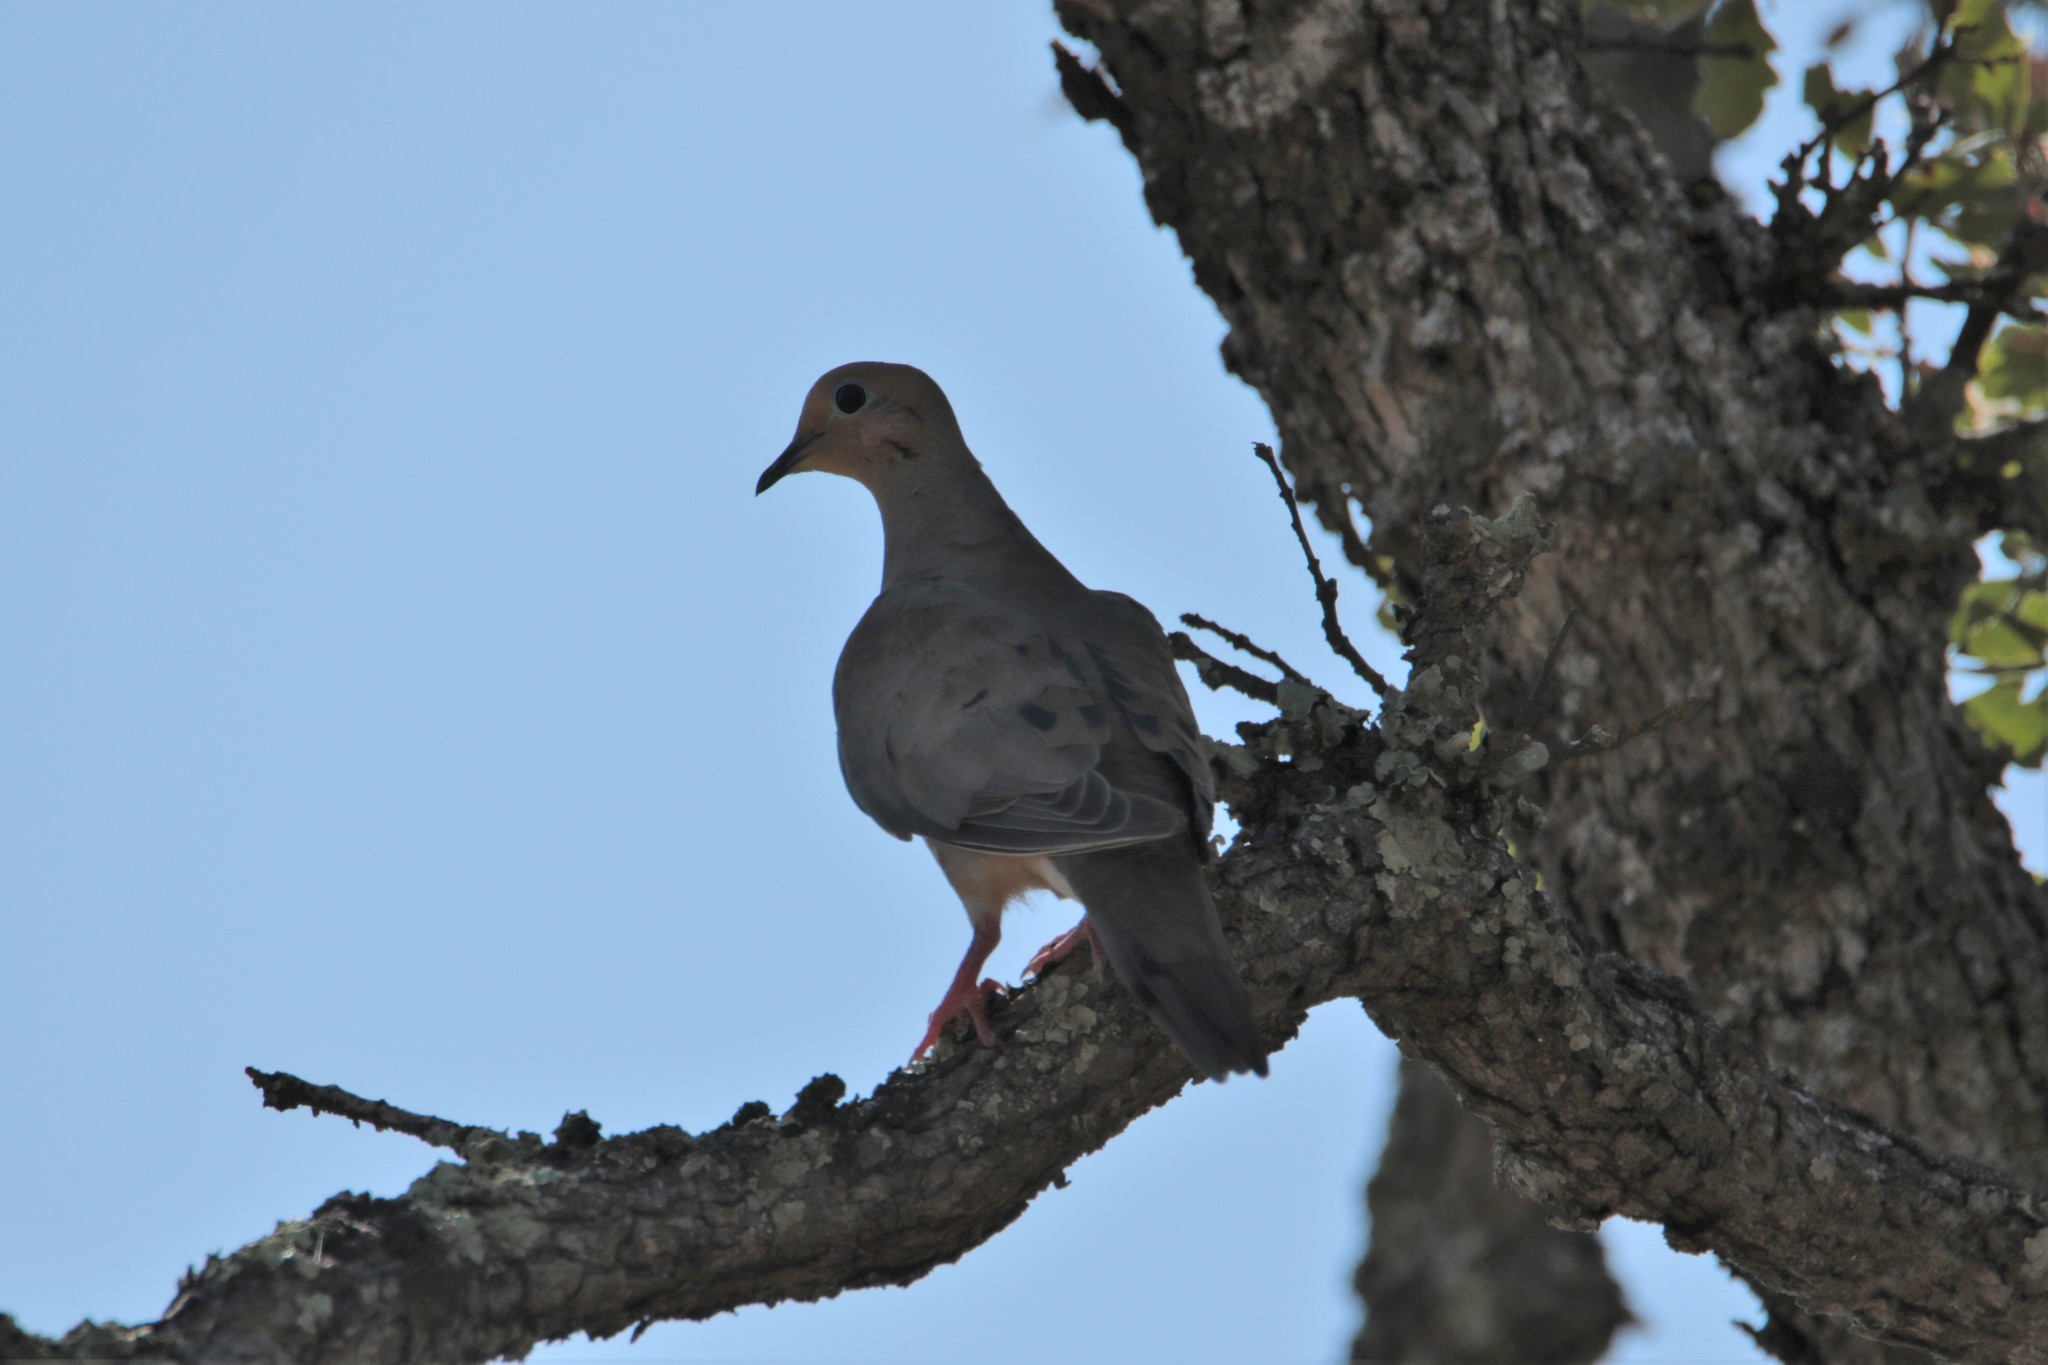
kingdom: Animalia
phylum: Chordata
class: Aves
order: Columbiformes
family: Columbidae
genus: Zenaida
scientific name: Zenaida macroura
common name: Mourning dove
